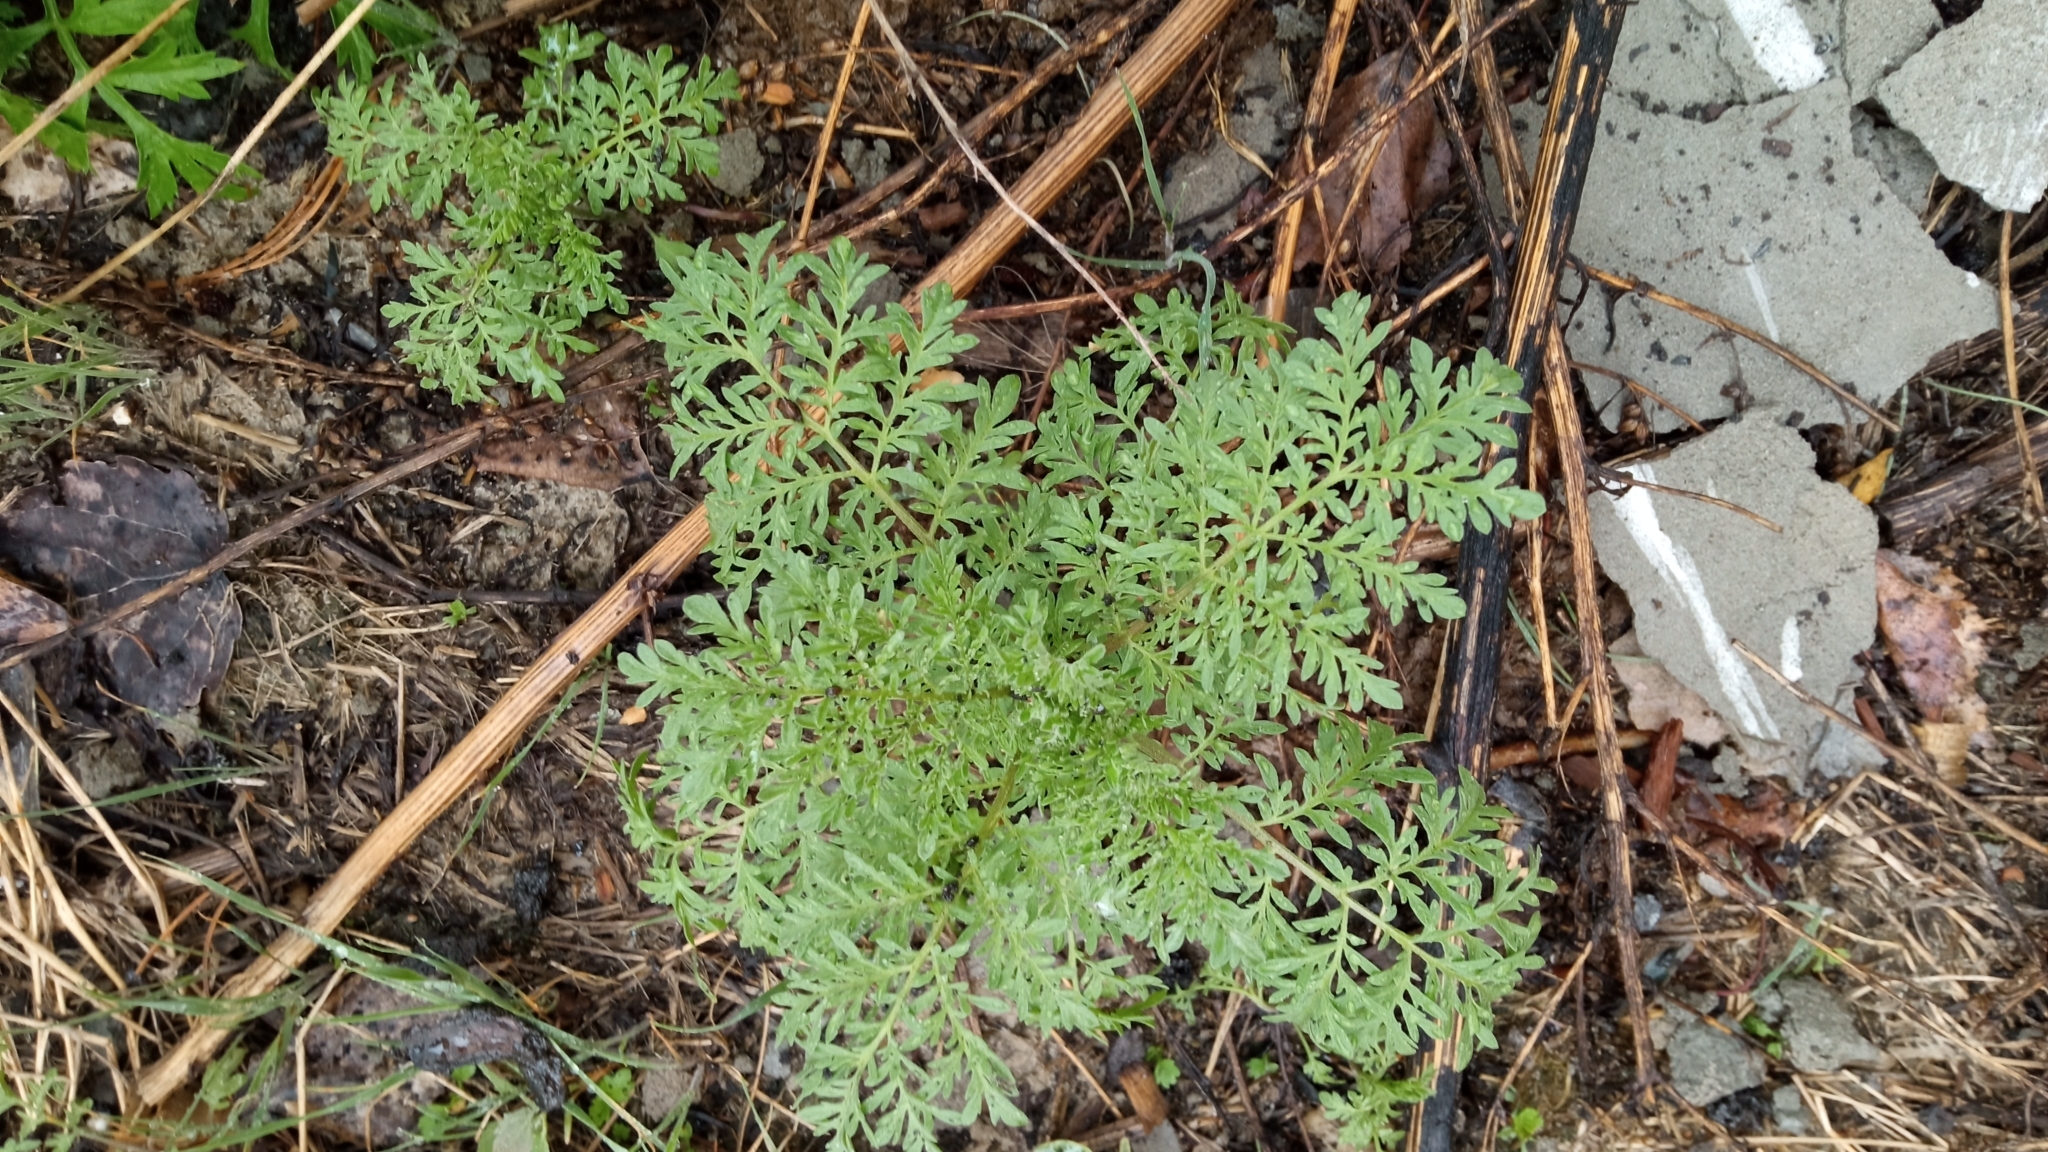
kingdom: Plantae
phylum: Tracheophyta
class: Magnoliopsida
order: Brassicales
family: Brassicaceae
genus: Descurainia
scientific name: Descurainia sophia
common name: Flixweed
